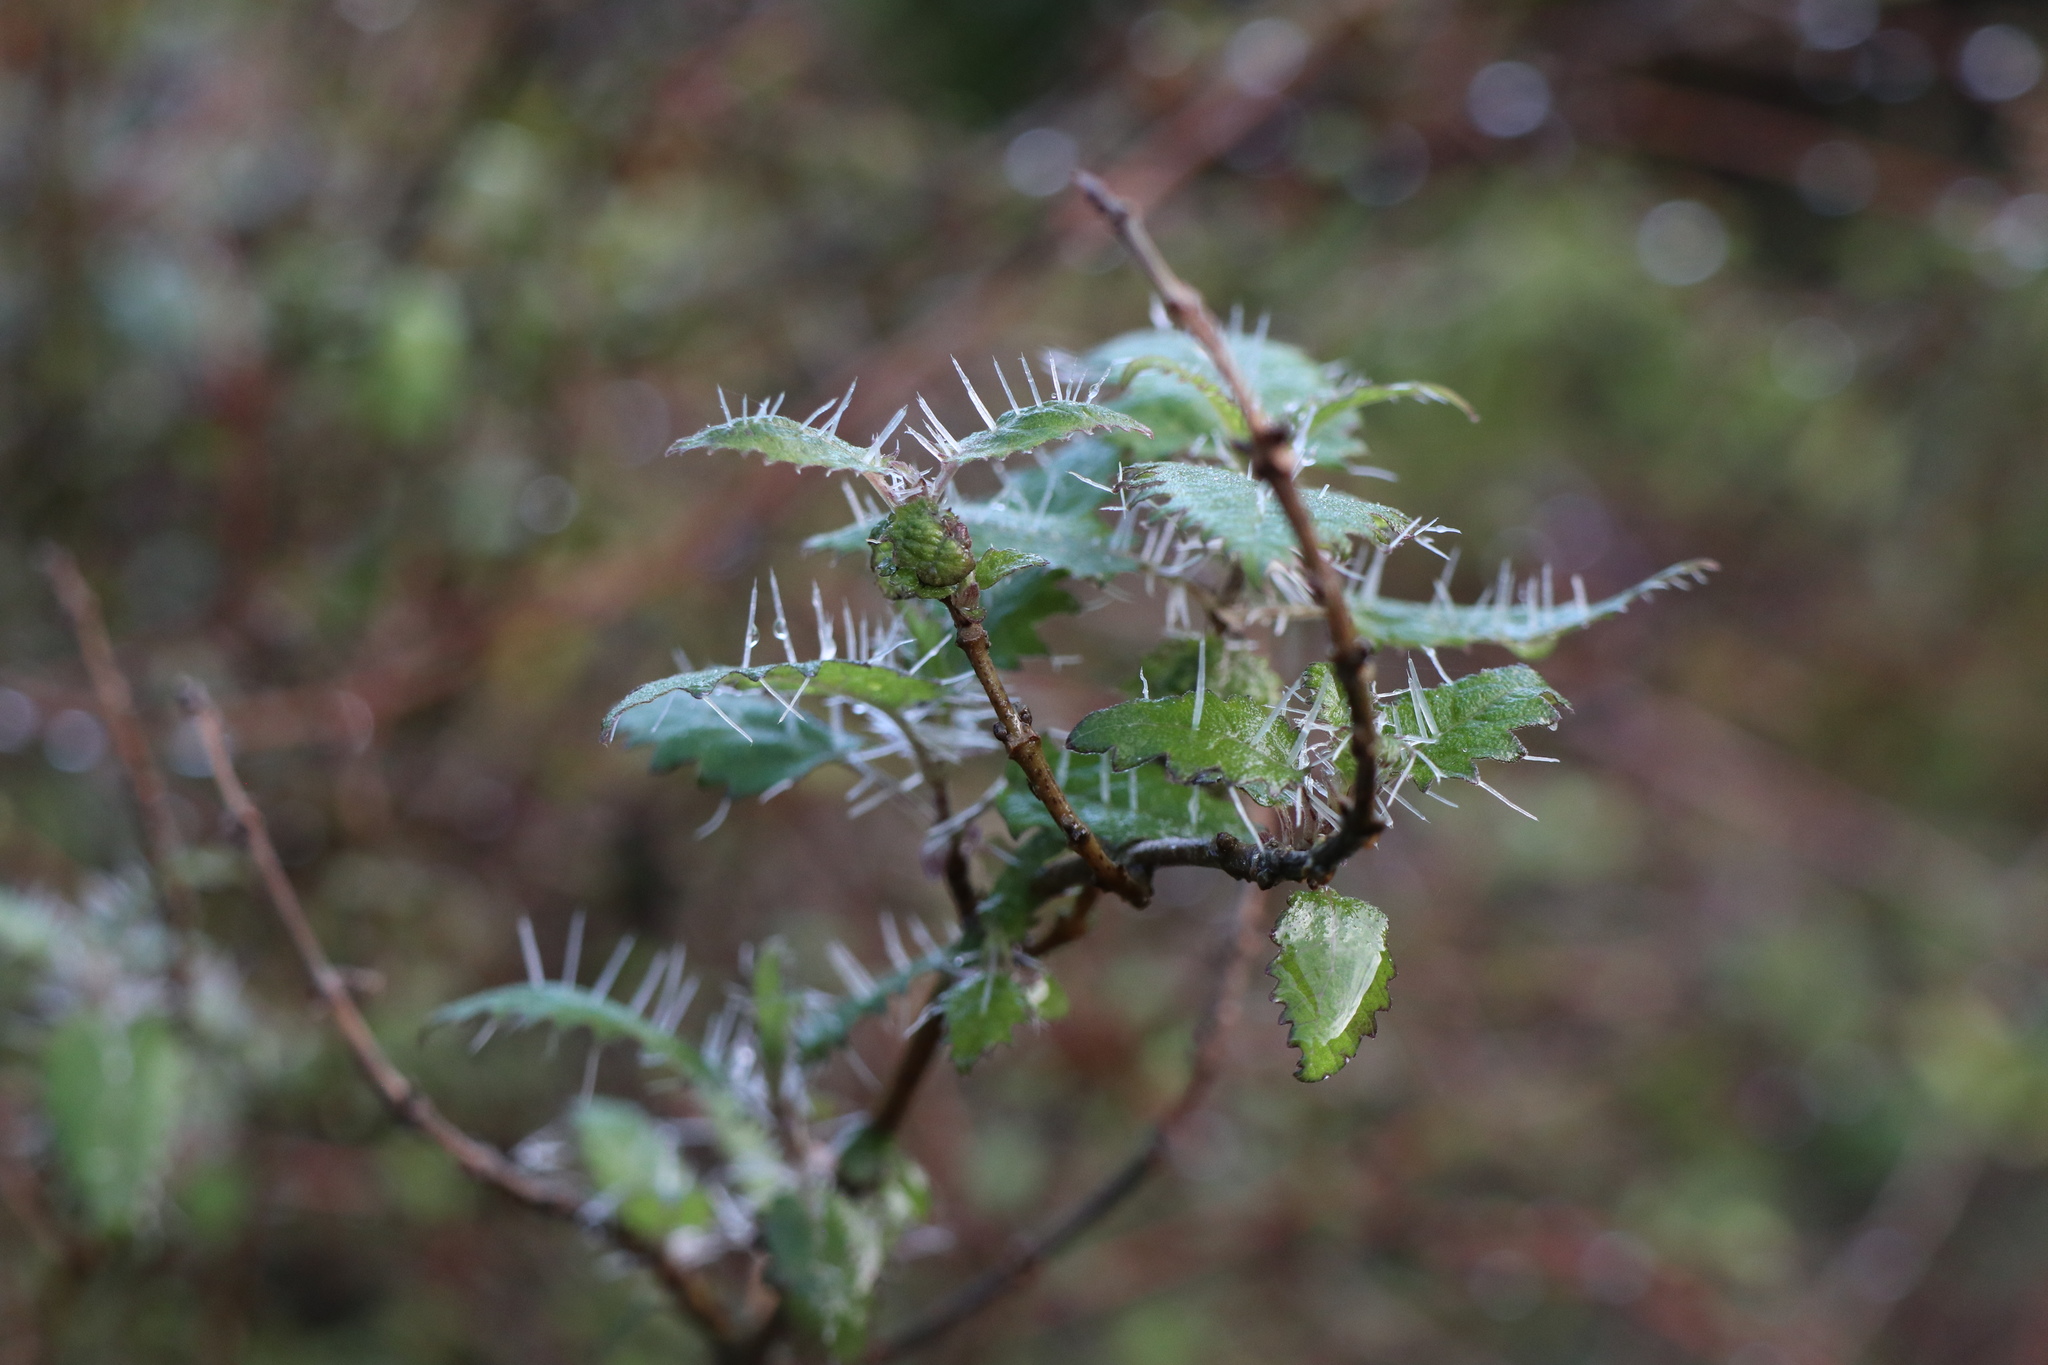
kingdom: Plantae
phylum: Tracheophyta
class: Magnoliopsida
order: Rosales
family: Urticaceae
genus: Urtica
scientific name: Urtica ferox
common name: Tree nettle
